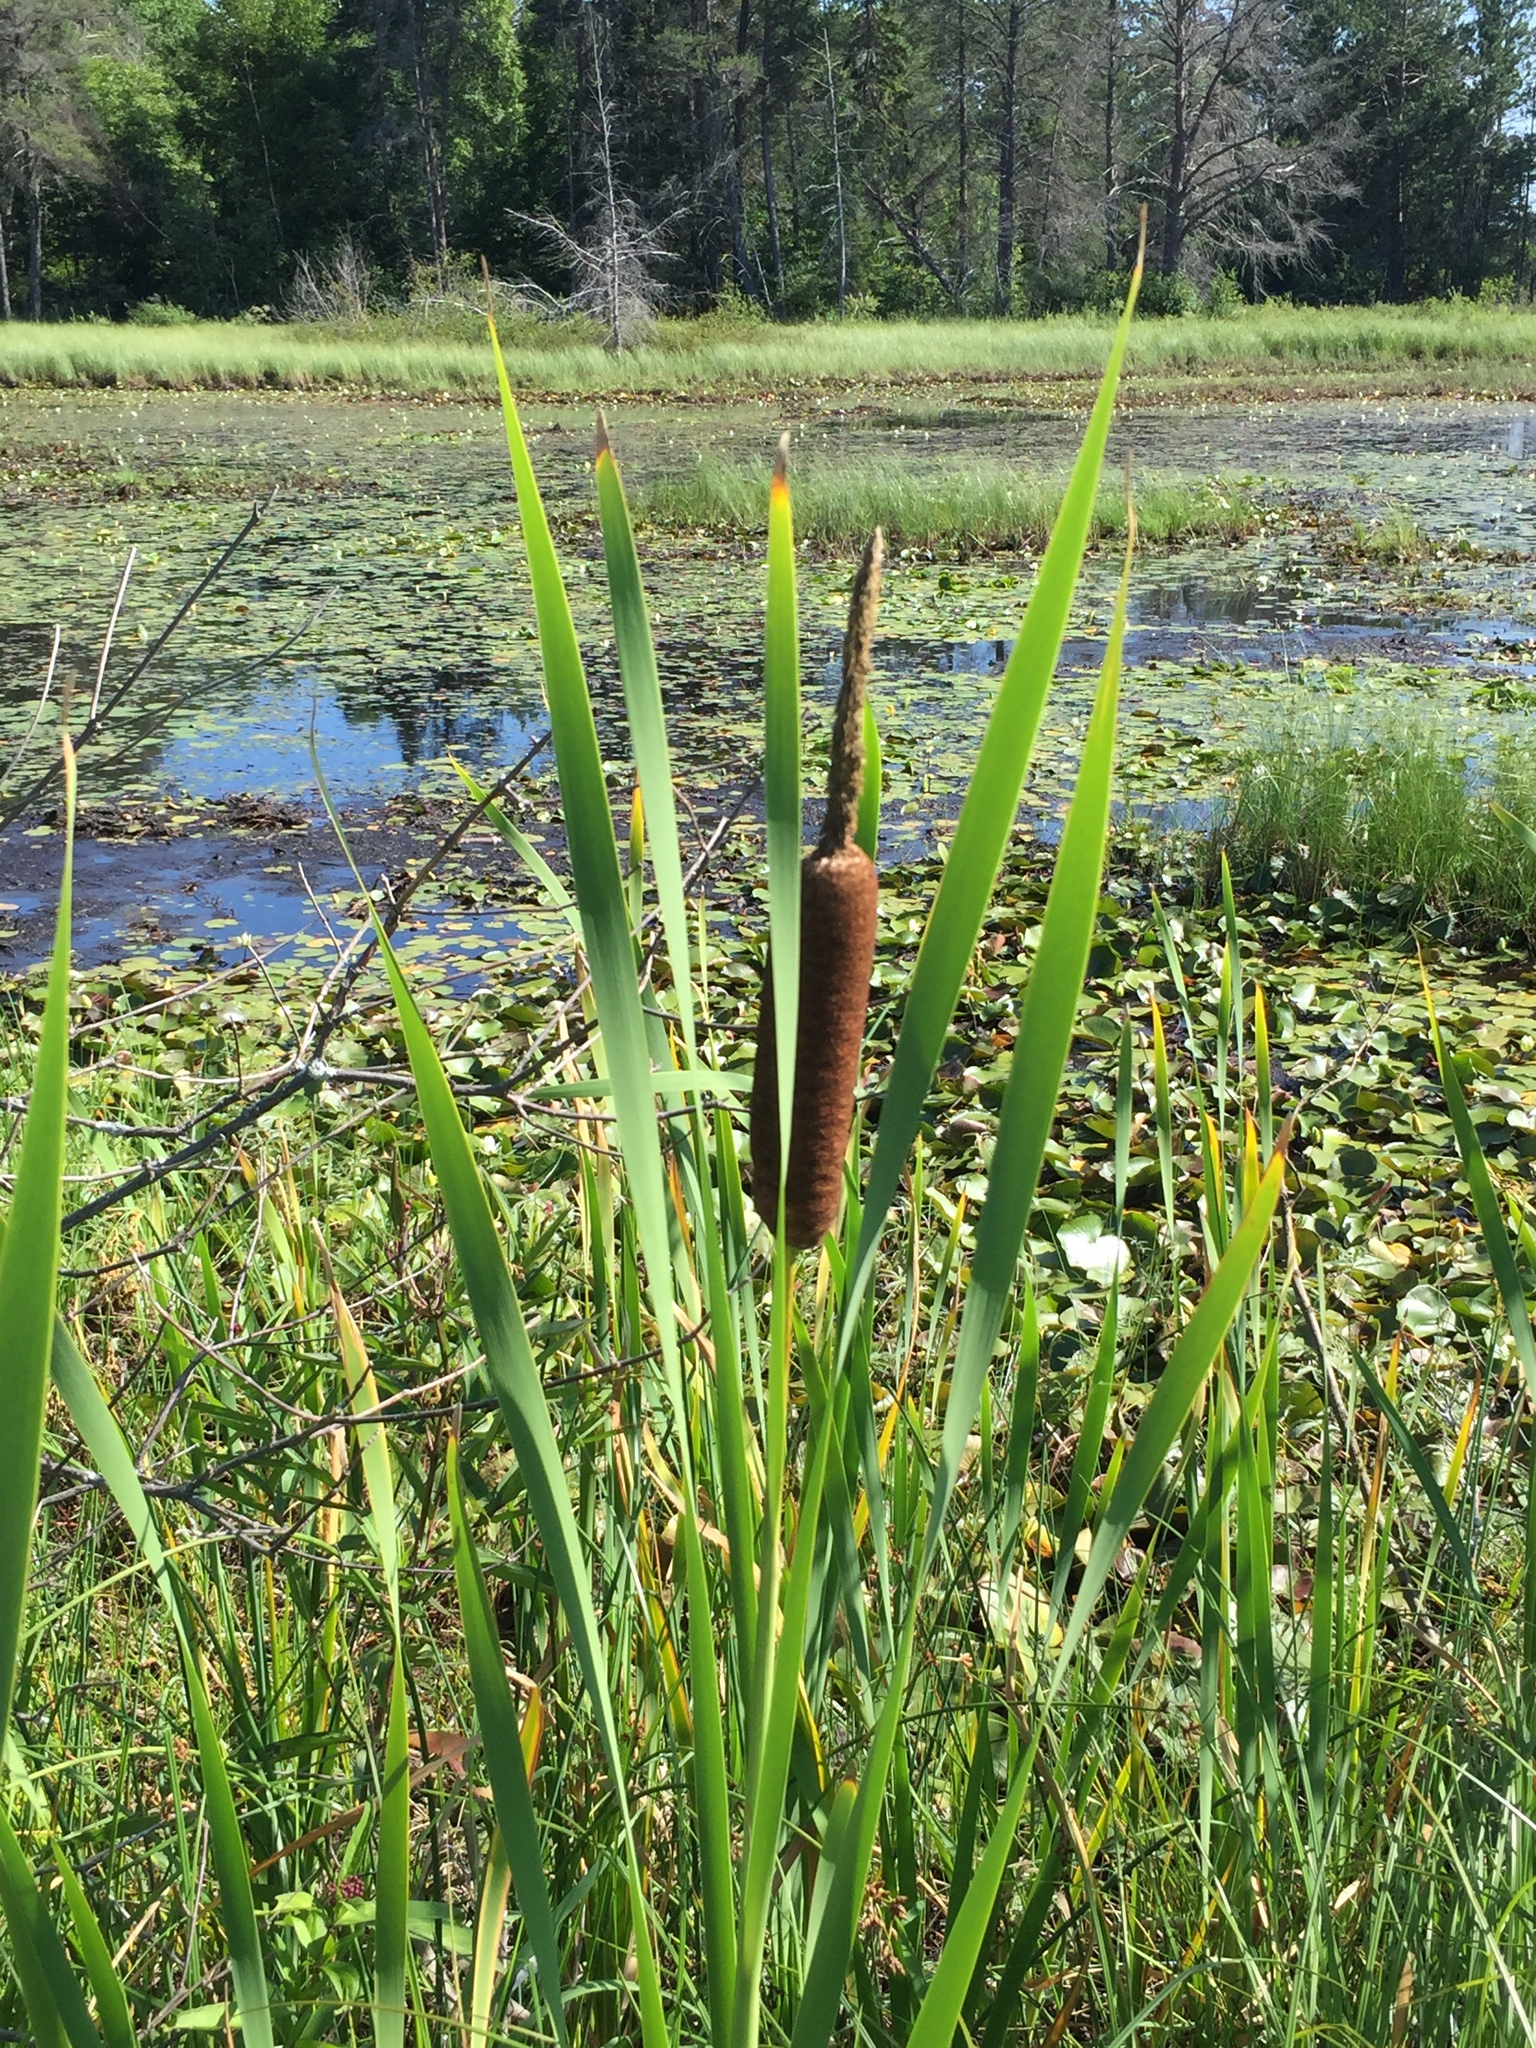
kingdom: Plantae
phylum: Tracheophyta
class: Liliopsida
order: Poales
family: Typhaceae
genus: Typha
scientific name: Typha latifolia
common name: Broadleaf cattail
